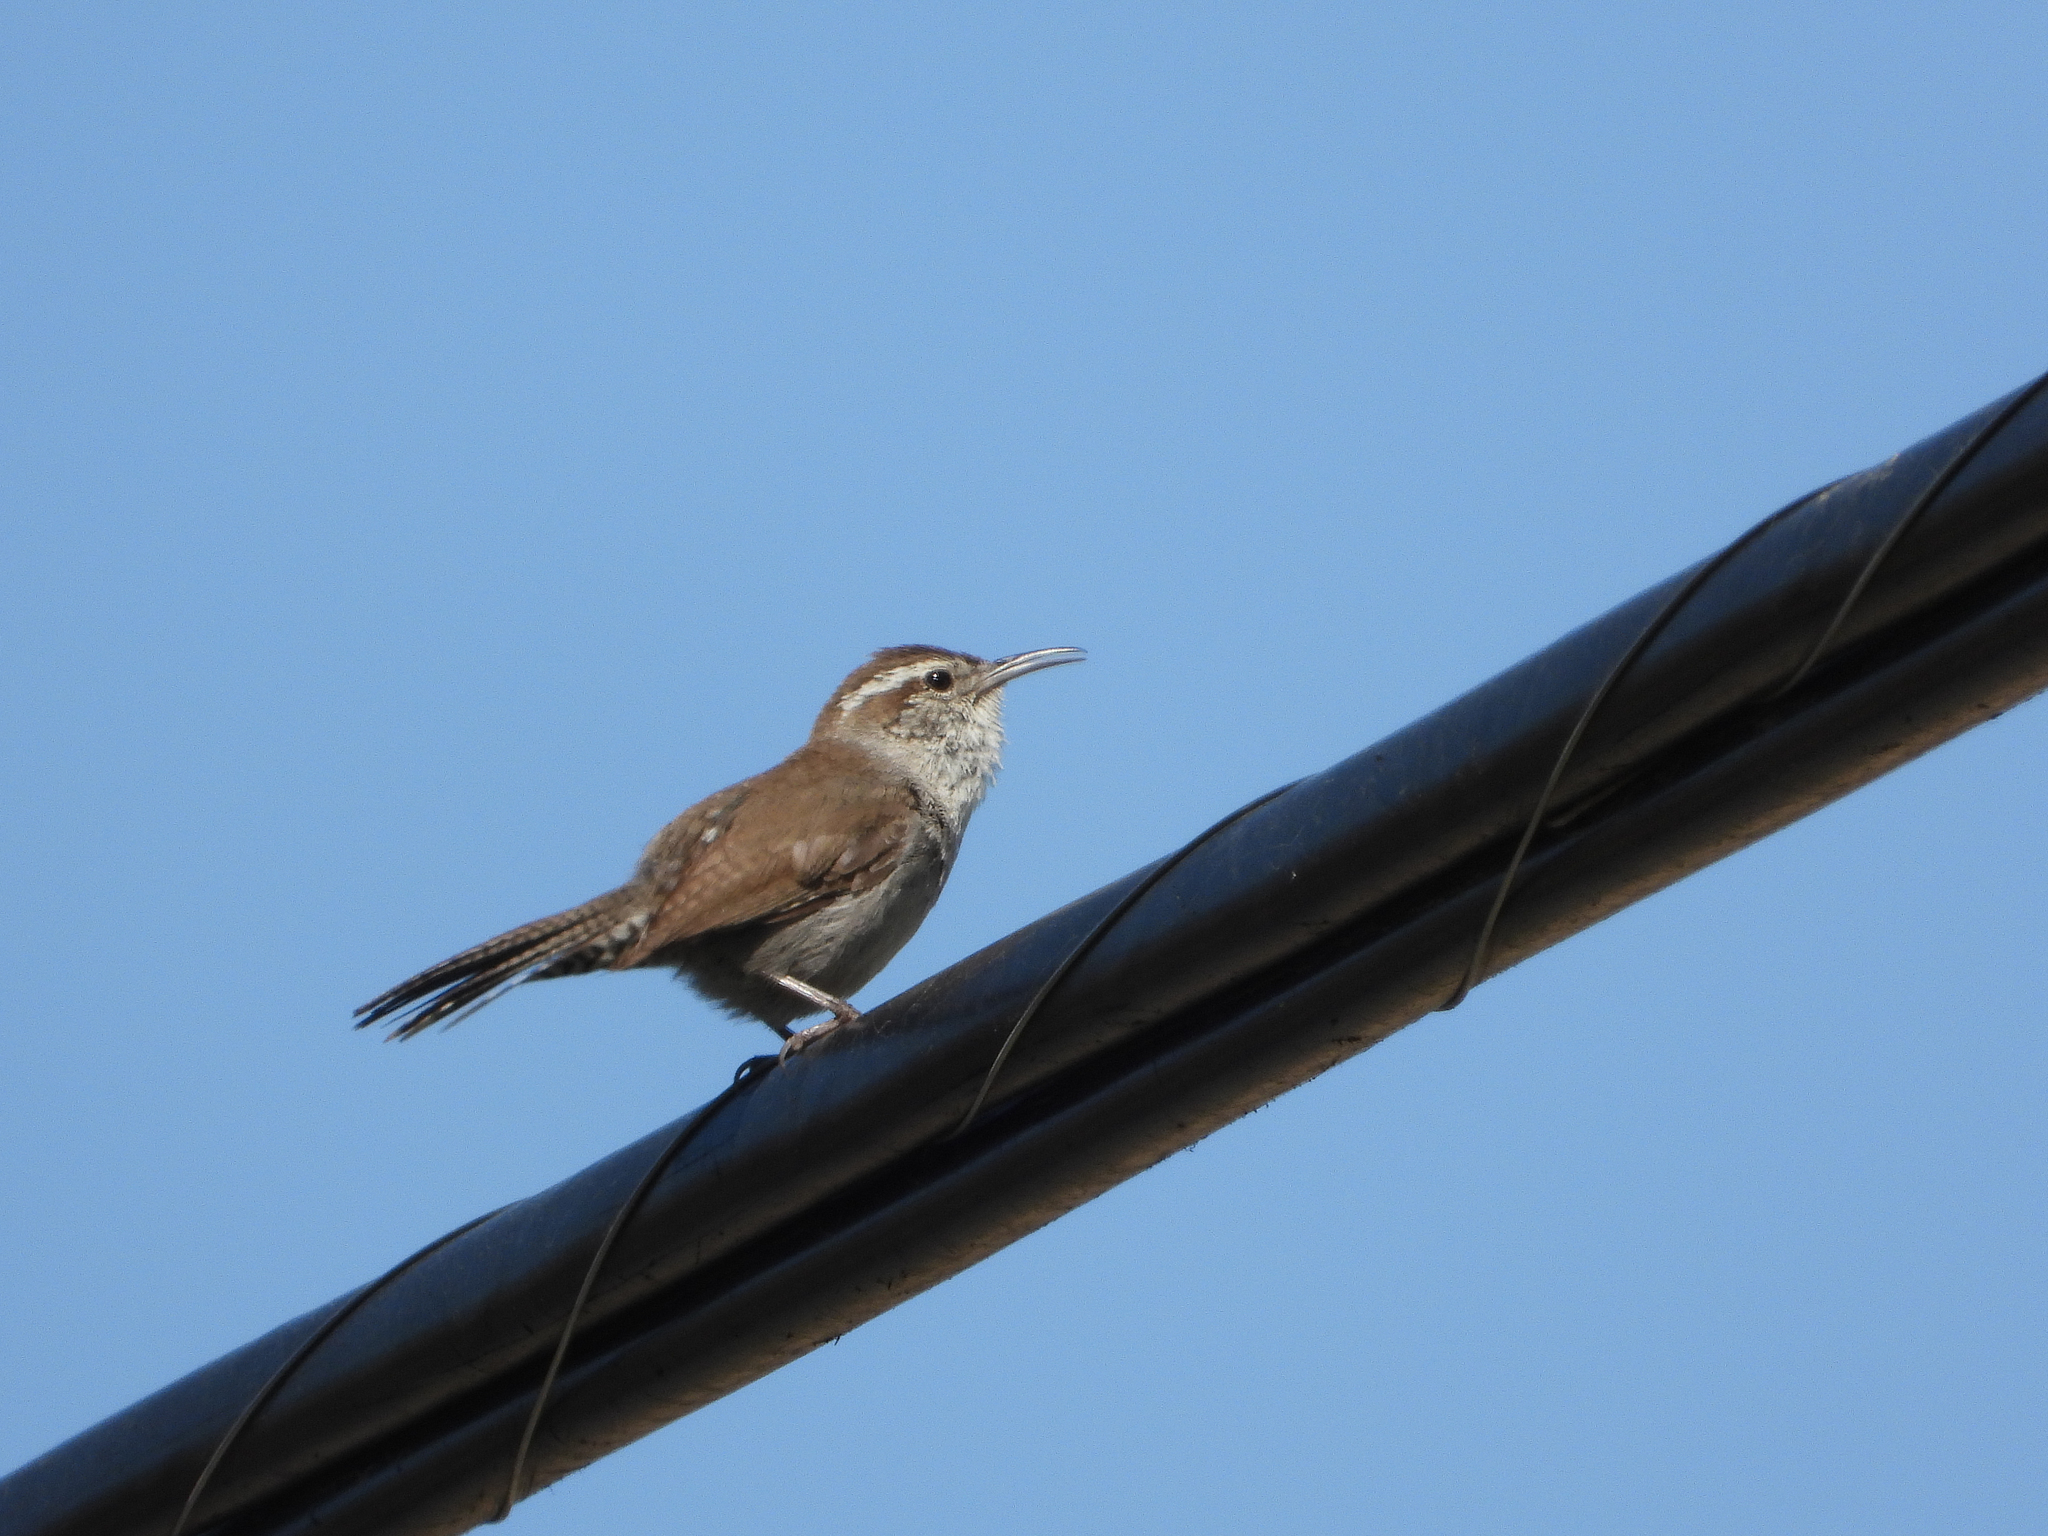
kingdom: Animalia
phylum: Chordata
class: Aves
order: Passeriformes
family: Troglodytidae
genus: Thryomanes
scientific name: Thryomanes bewickii
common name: Bewick's wren
